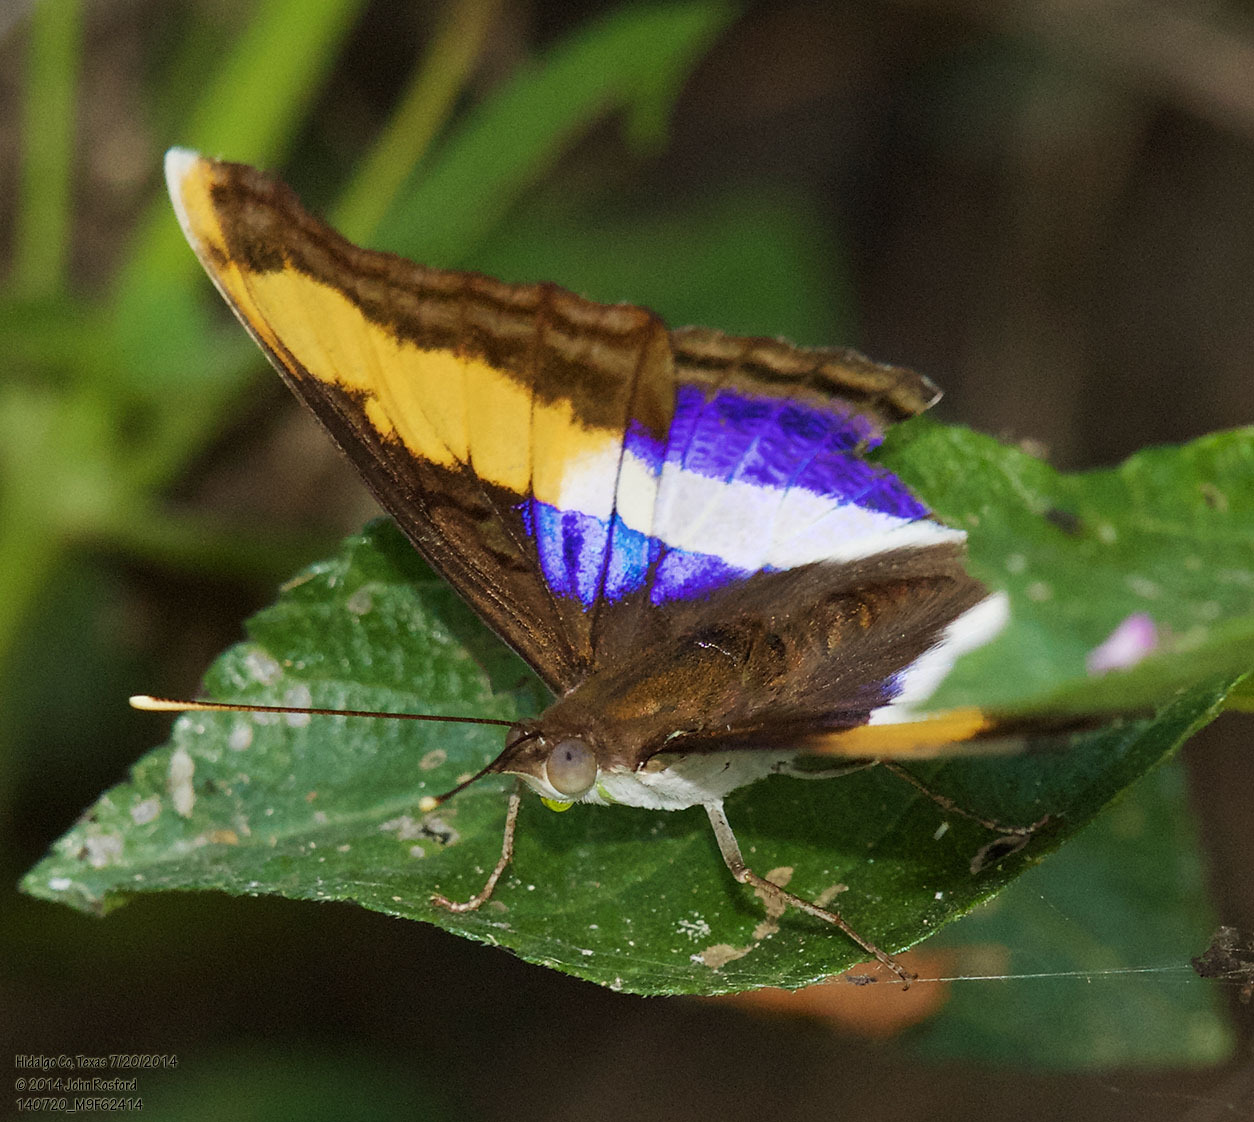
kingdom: Animalia
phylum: Arthropoda
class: Insecta
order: Lepidoptera
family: Nymphalidae
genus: Doxocopa
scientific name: Doxocopa laure
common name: Silver emperor
